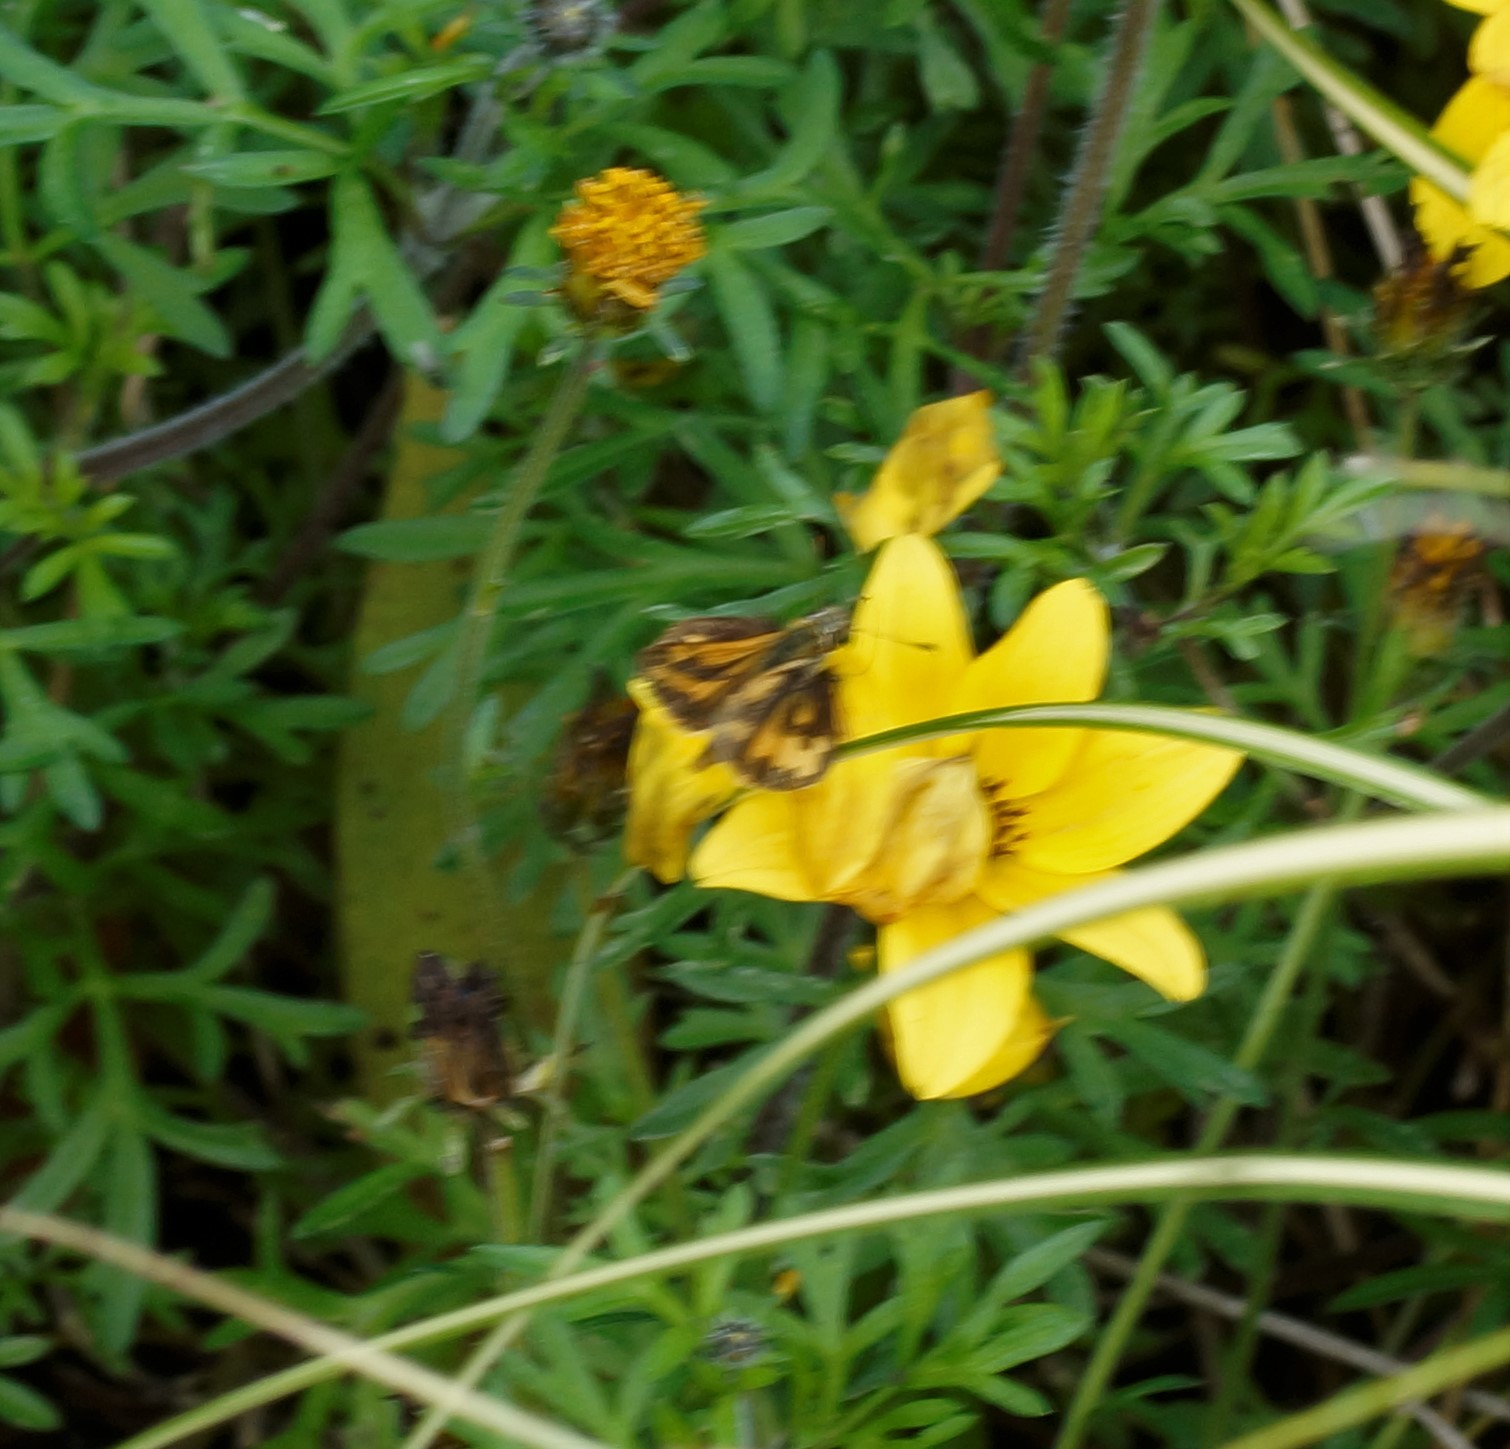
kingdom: Animalia
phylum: Arthropoda
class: Insecta
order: Lepidoptera
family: Hesperiidae
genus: Ocybadistes
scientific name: Ocybadistes walkeri
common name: Yellow-banded dart
